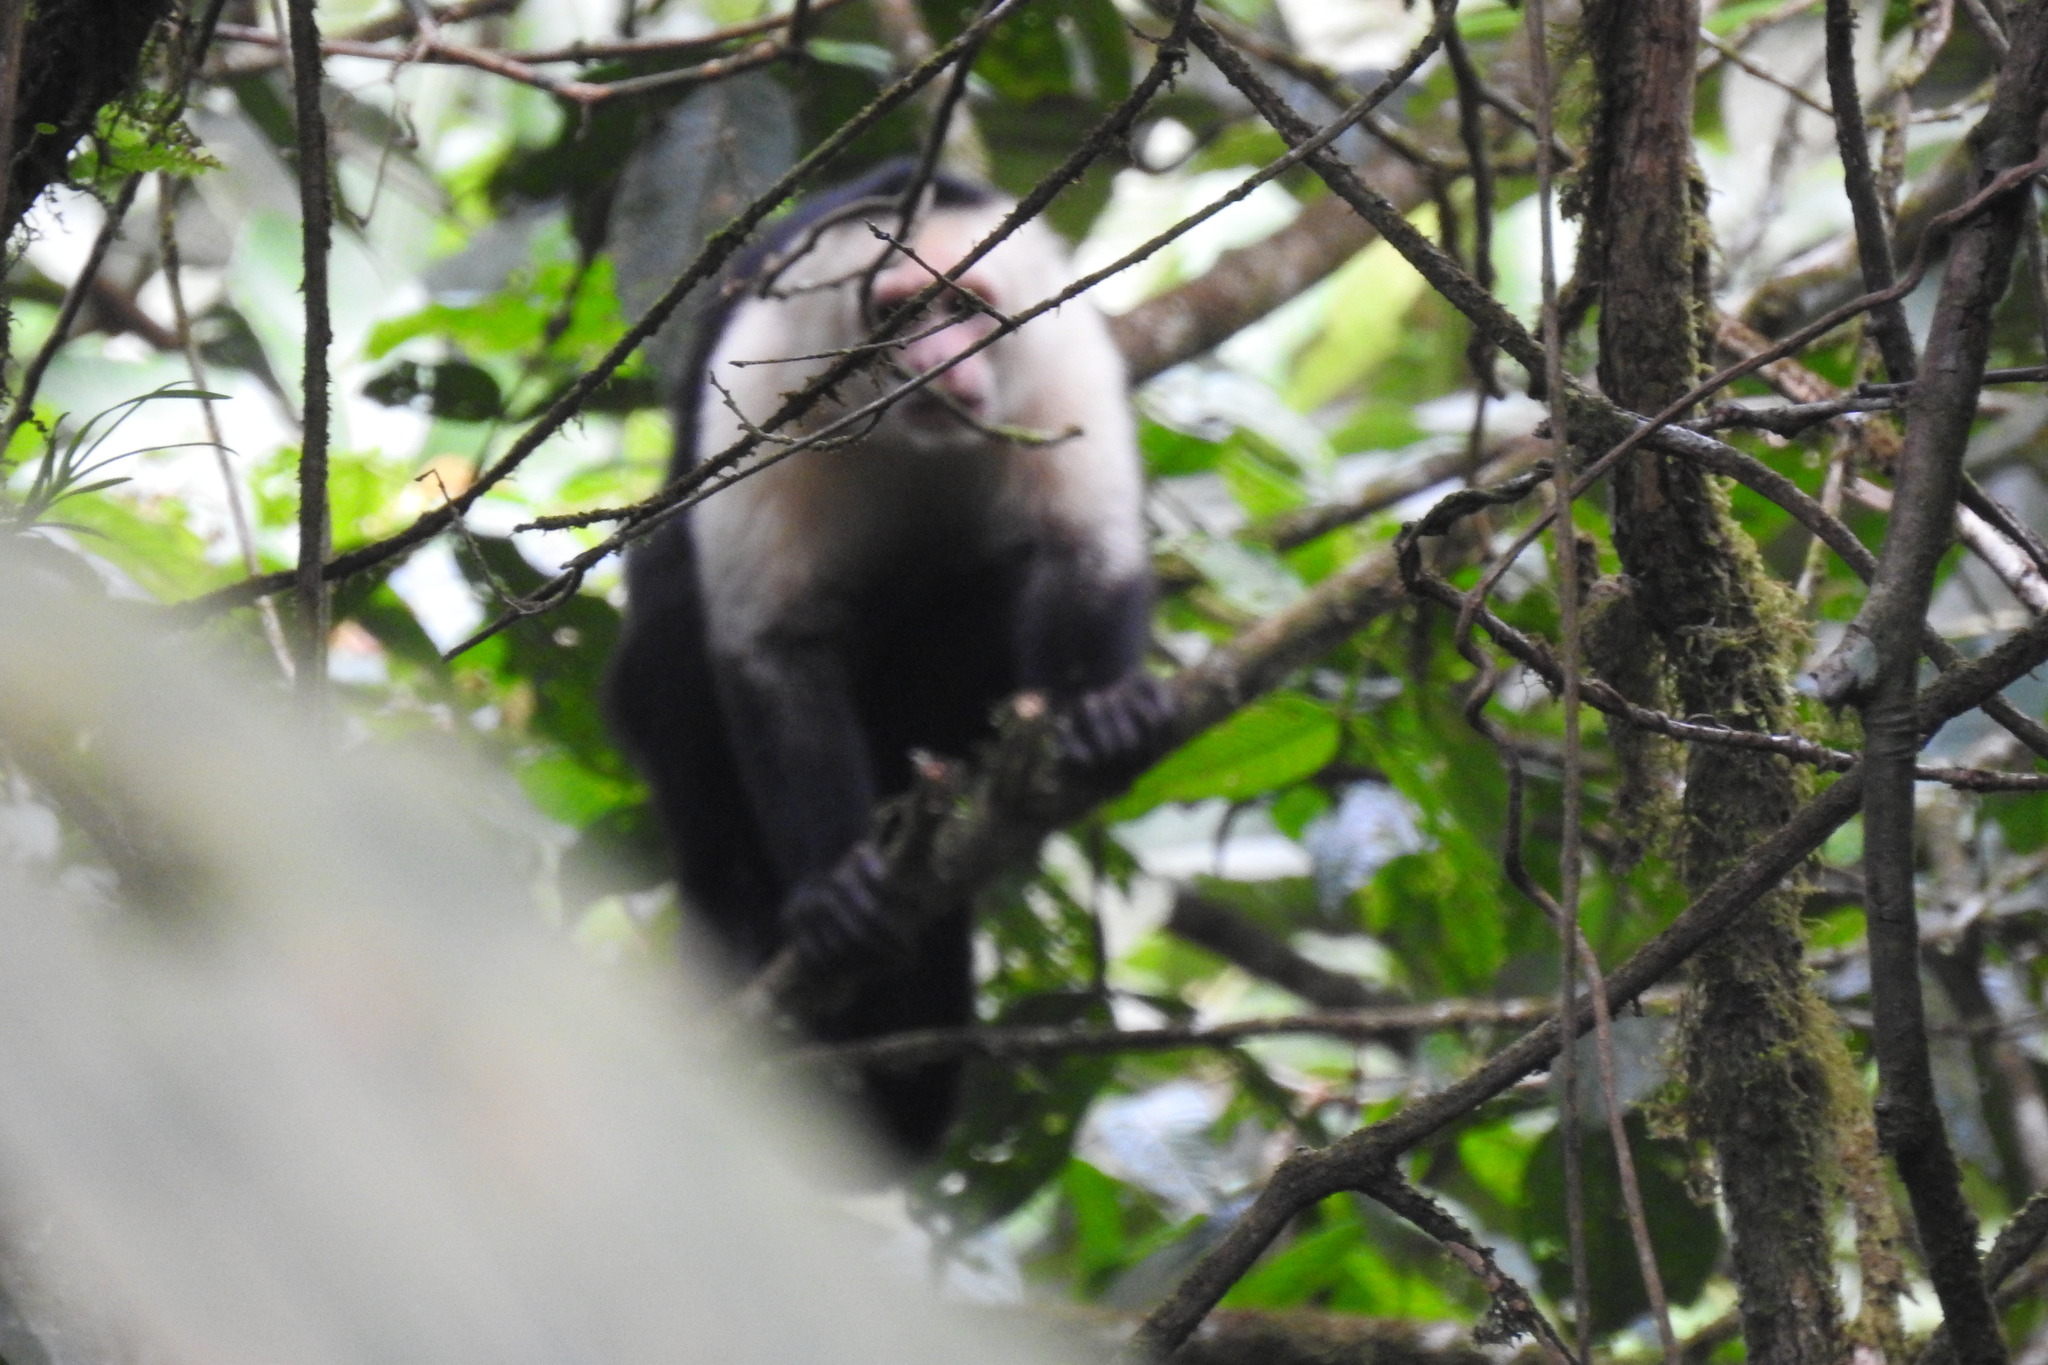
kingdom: Animalia
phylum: Chordata
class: Mammalia
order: Primates
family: Cebidae
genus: Cebus
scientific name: Cebus imitator
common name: Panamanian white-faced capuchin
